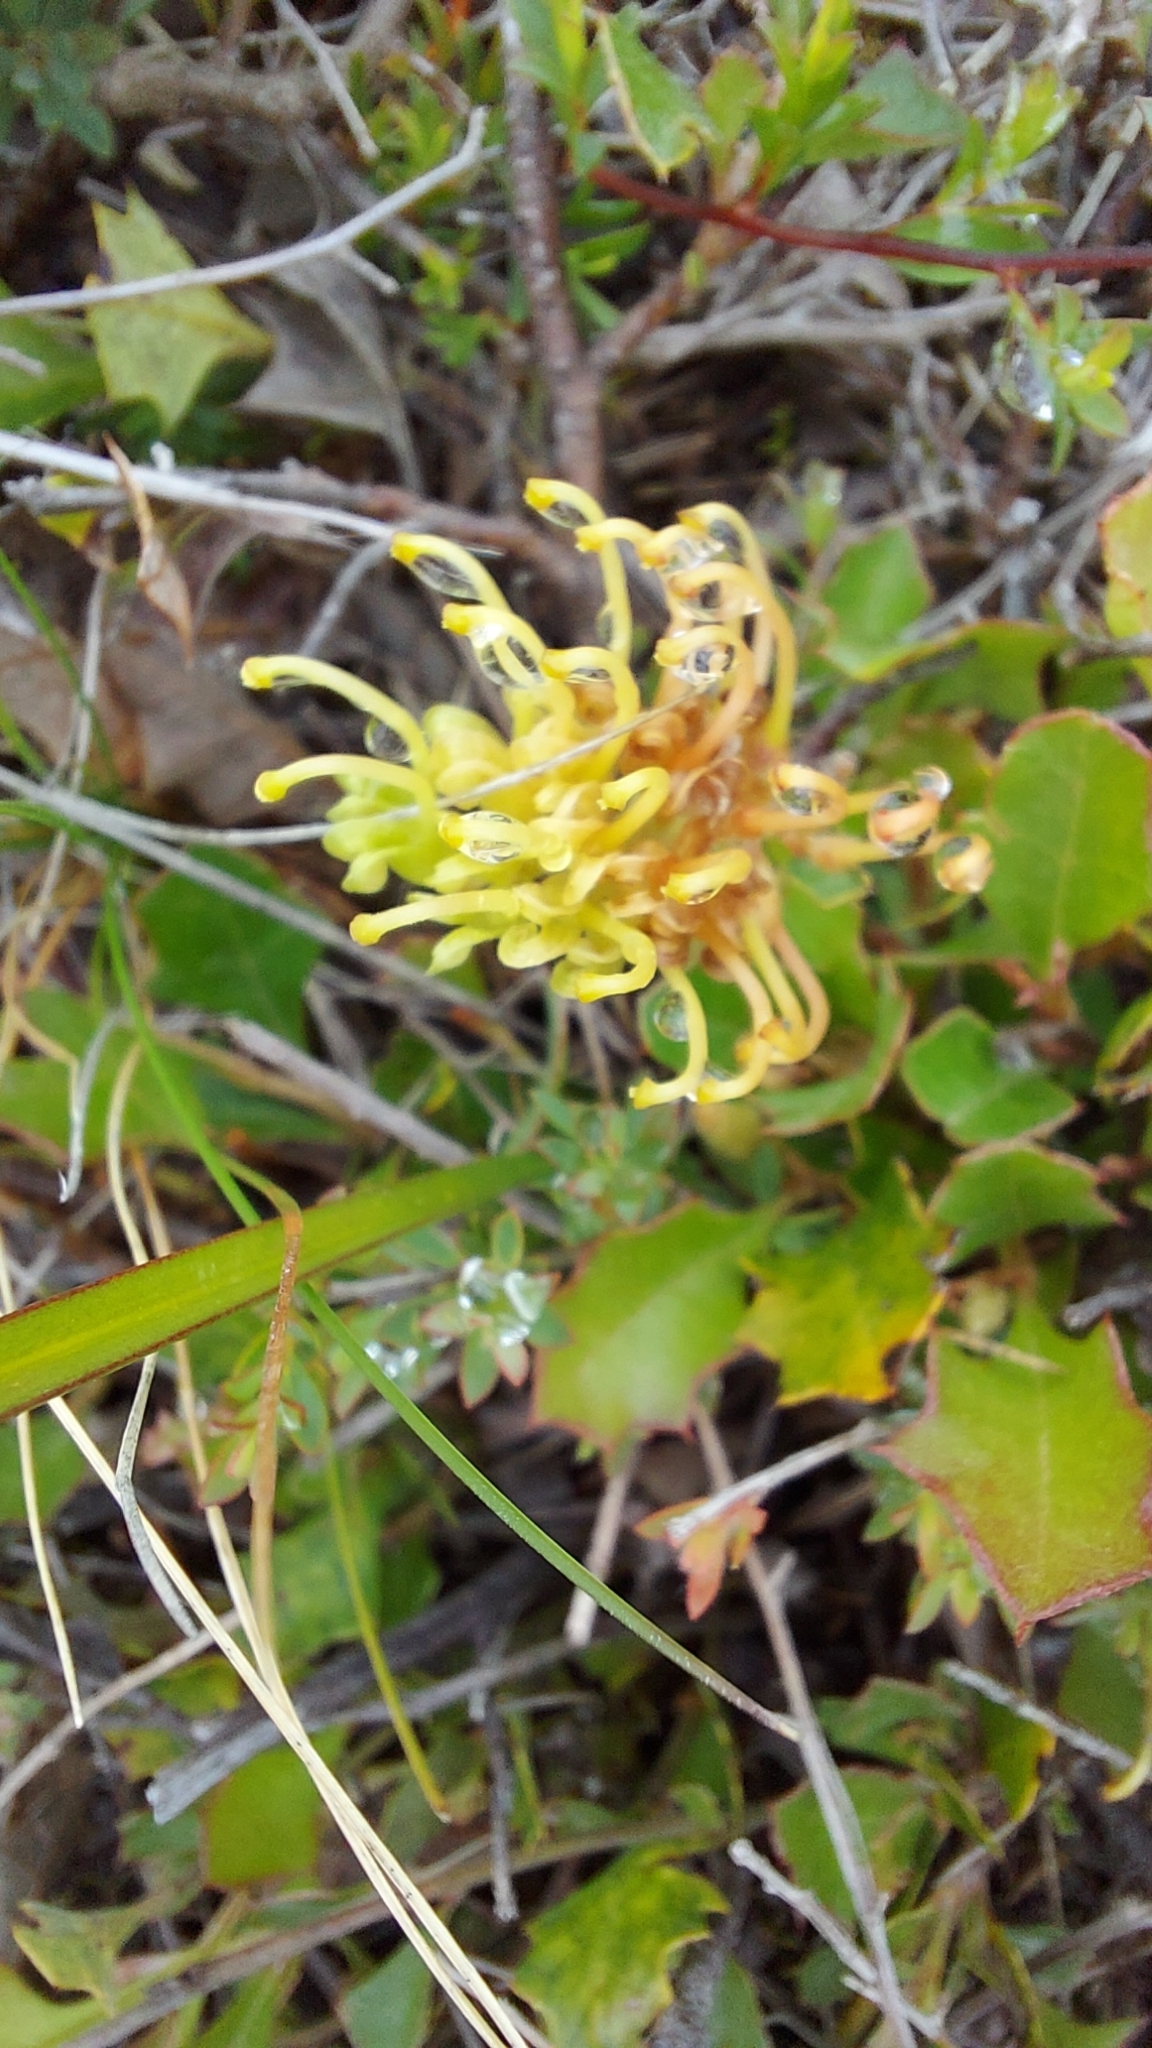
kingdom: Plantae
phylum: Tracheophyta
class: Magnoliopsida
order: Proteales
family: Proteaceae
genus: Grevillea
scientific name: Grevillea bedggoodiana
